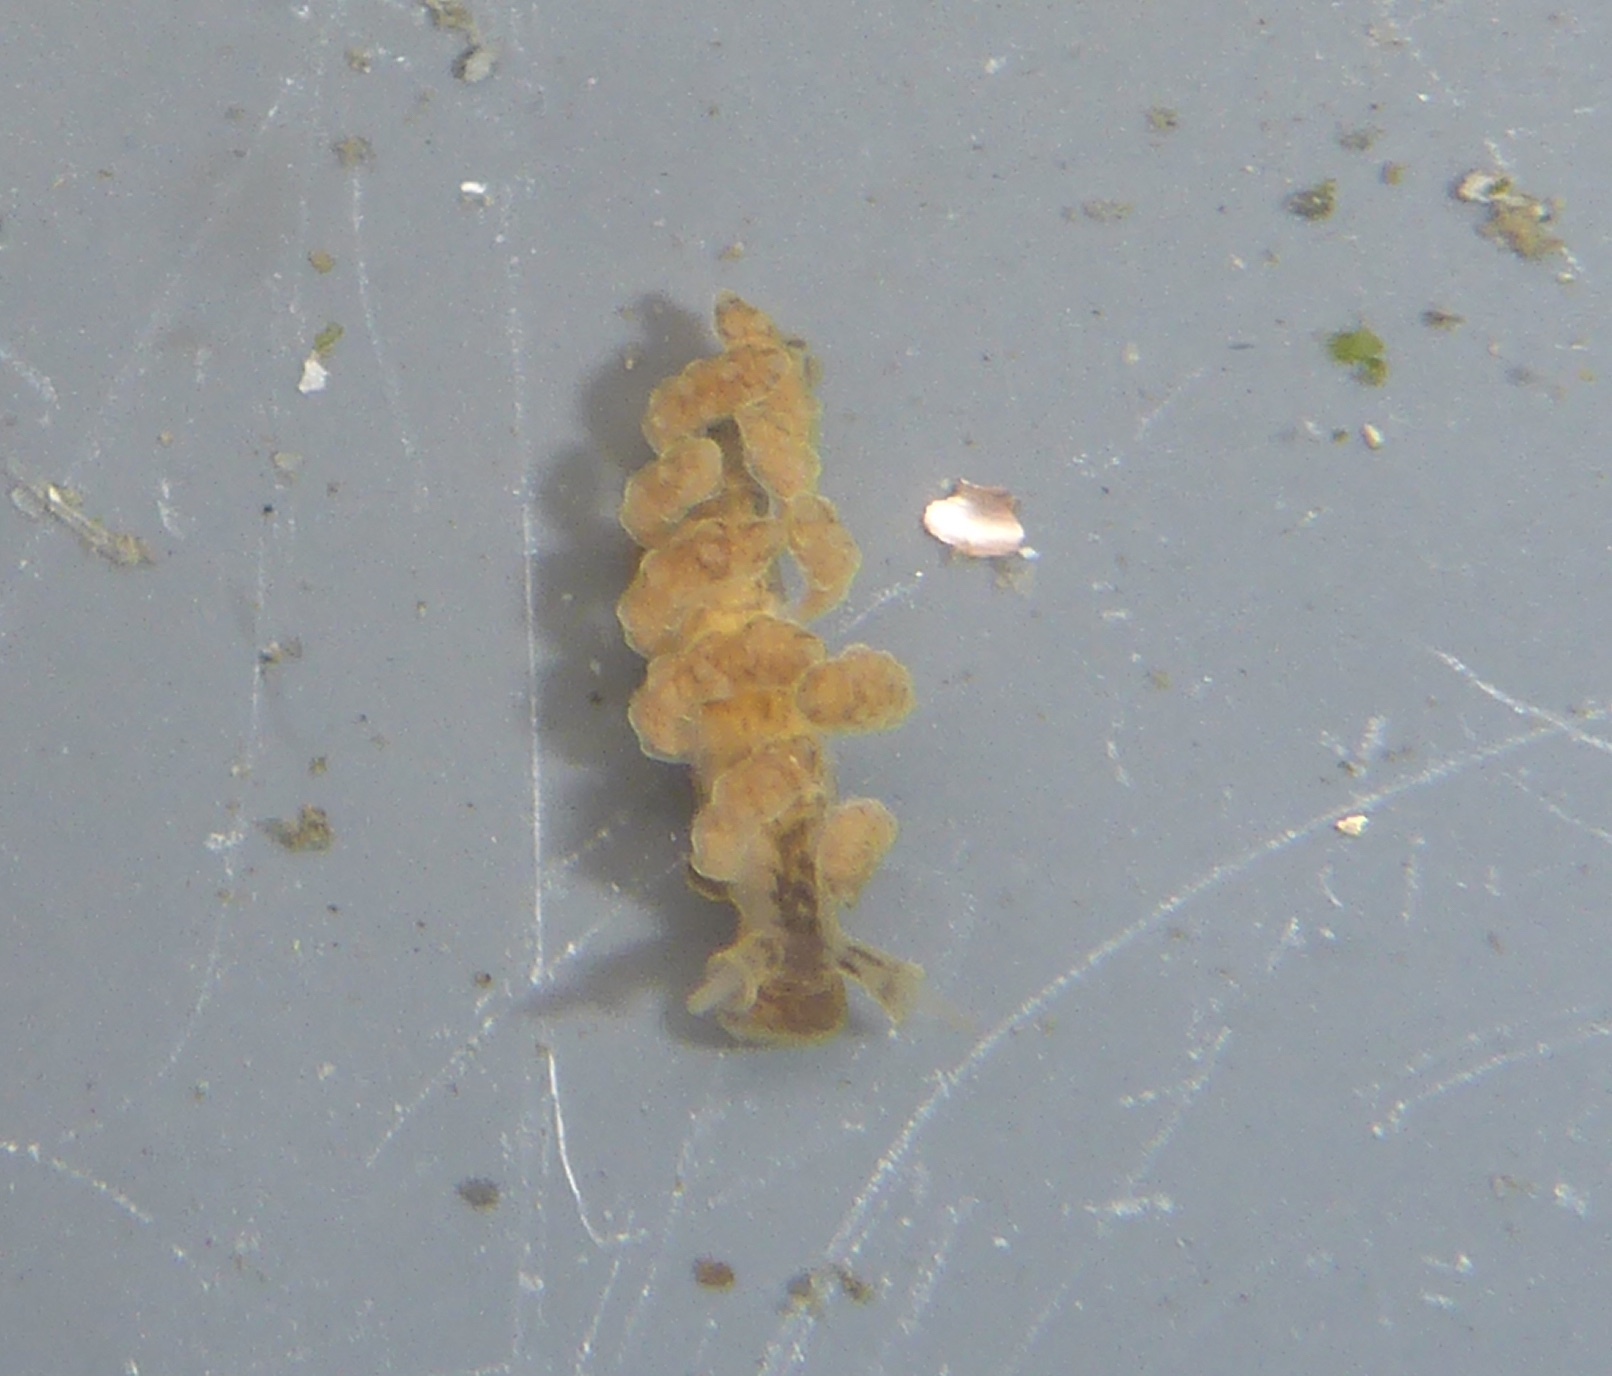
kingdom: Animalia
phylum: Mollusca
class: Gastropoda
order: Nudibranchia
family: Dotidae
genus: Doto
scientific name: Doto columbiana
